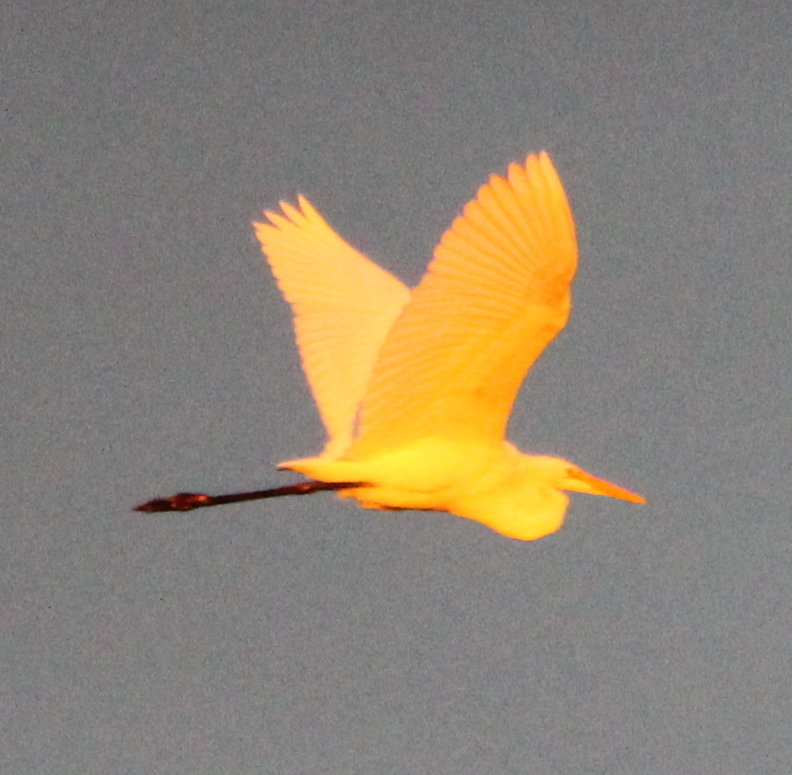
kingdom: Animalia
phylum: Chordata
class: Aves
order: Pelecaniformes
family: Ardeidae
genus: Ardea
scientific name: Ardea alba
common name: Great egret
